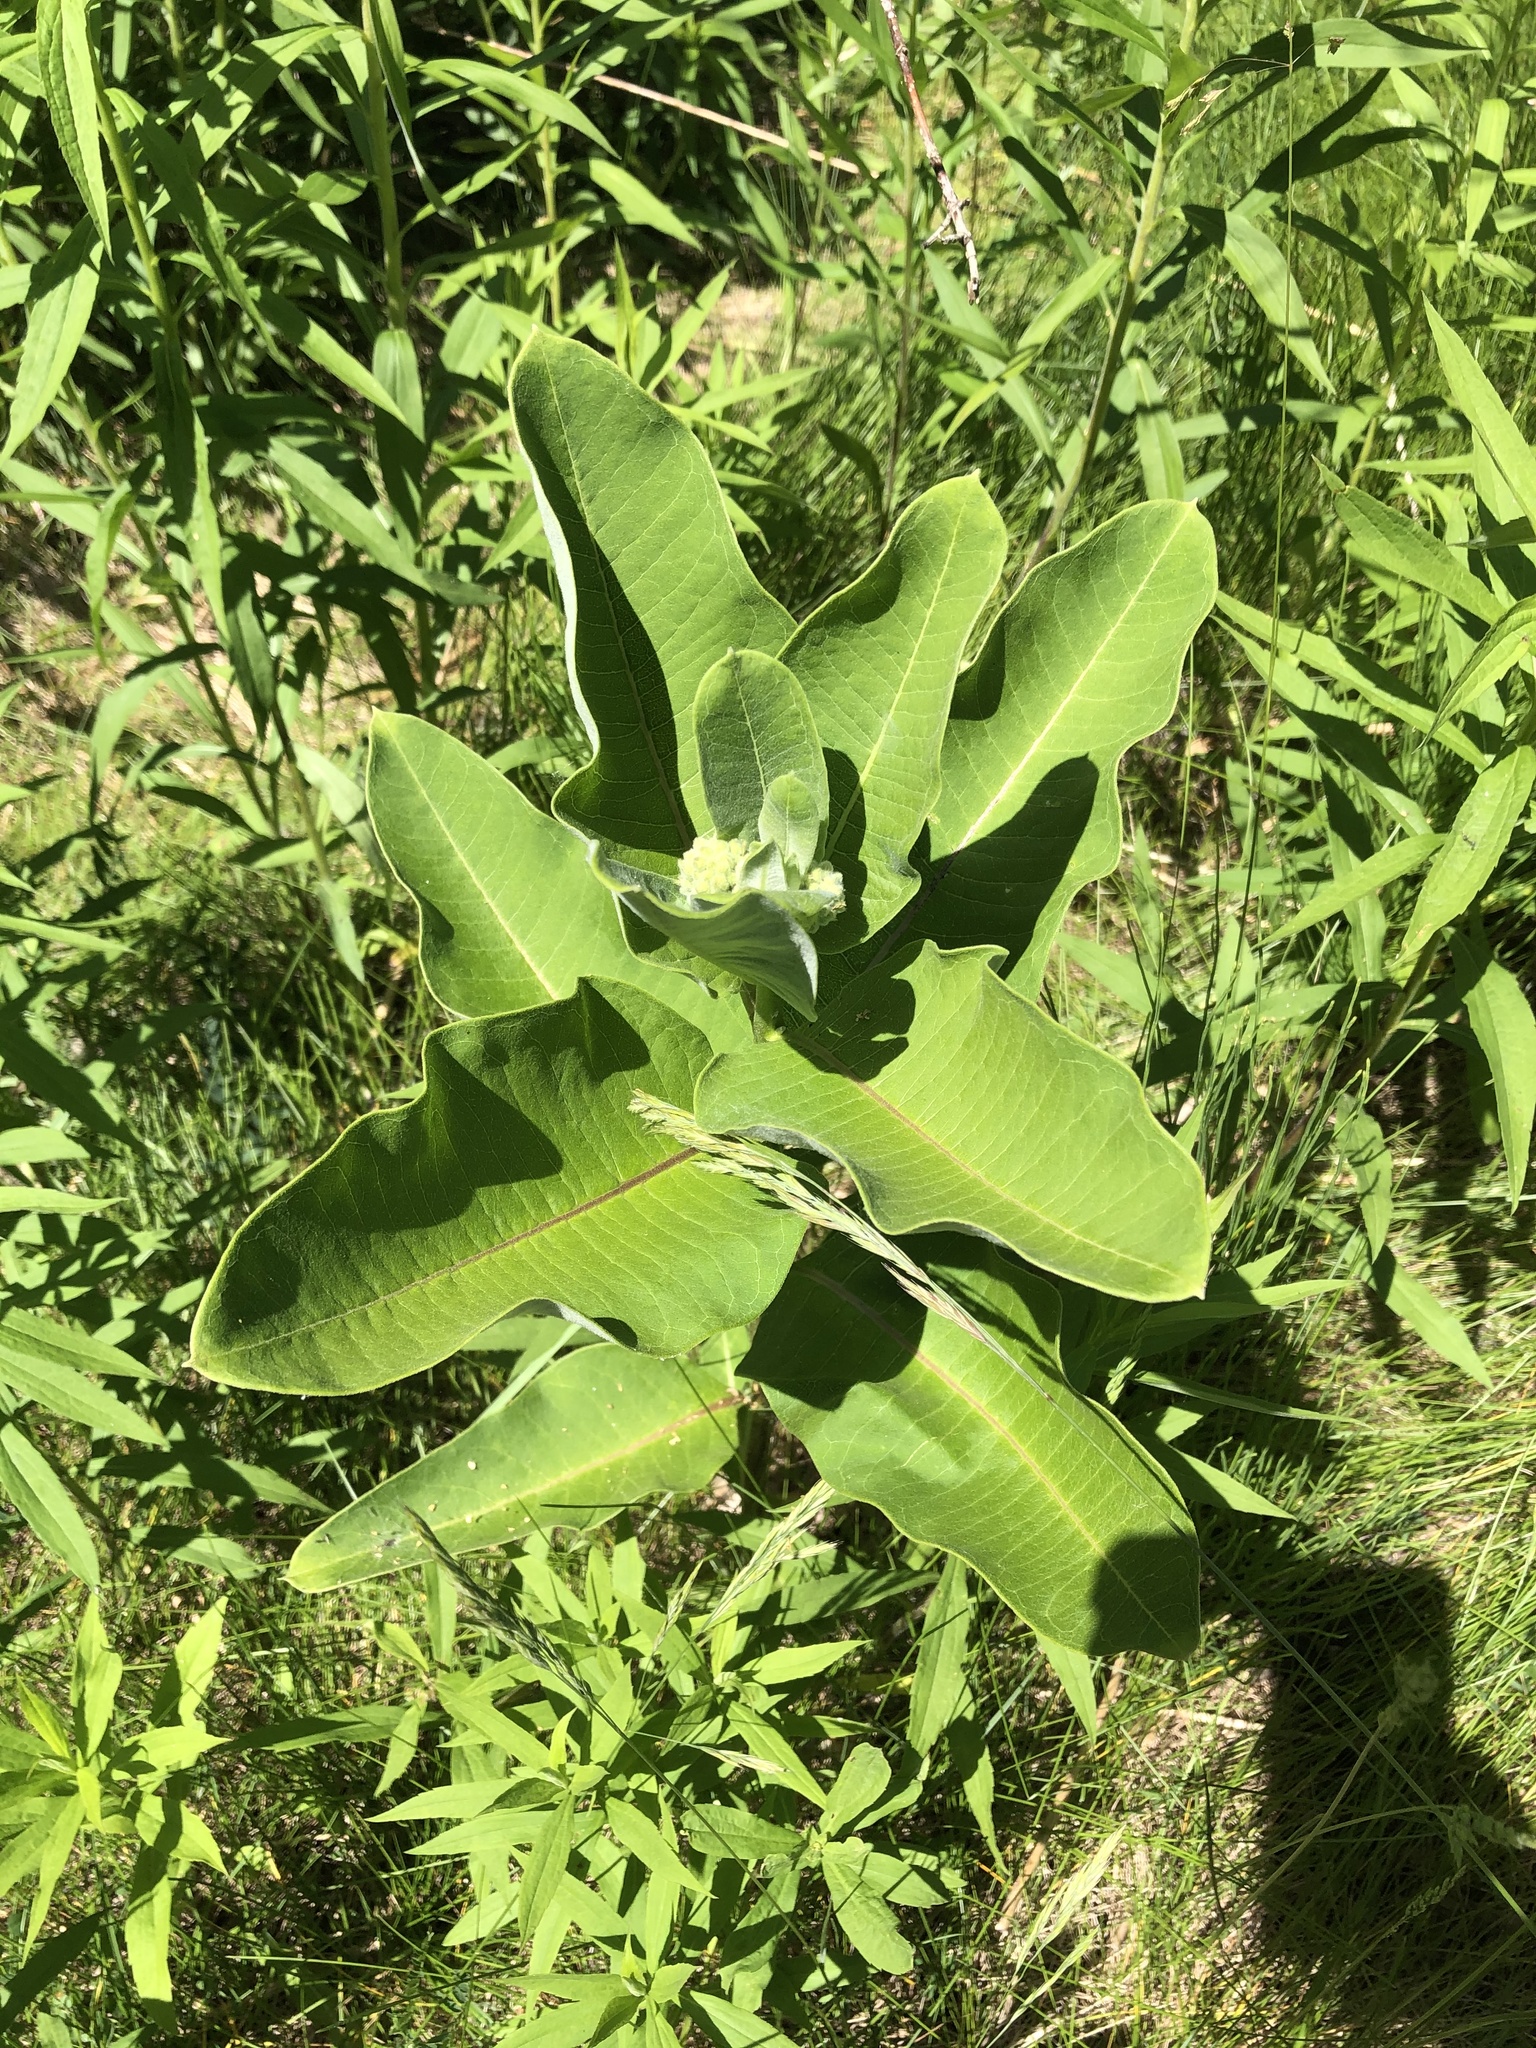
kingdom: Plantae
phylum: Tracheophyta
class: Magnoliopsida
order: Gentianales
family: Apocynaceae
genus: Asclepias
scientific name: Asclepias syriaca
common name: Common milkweed
